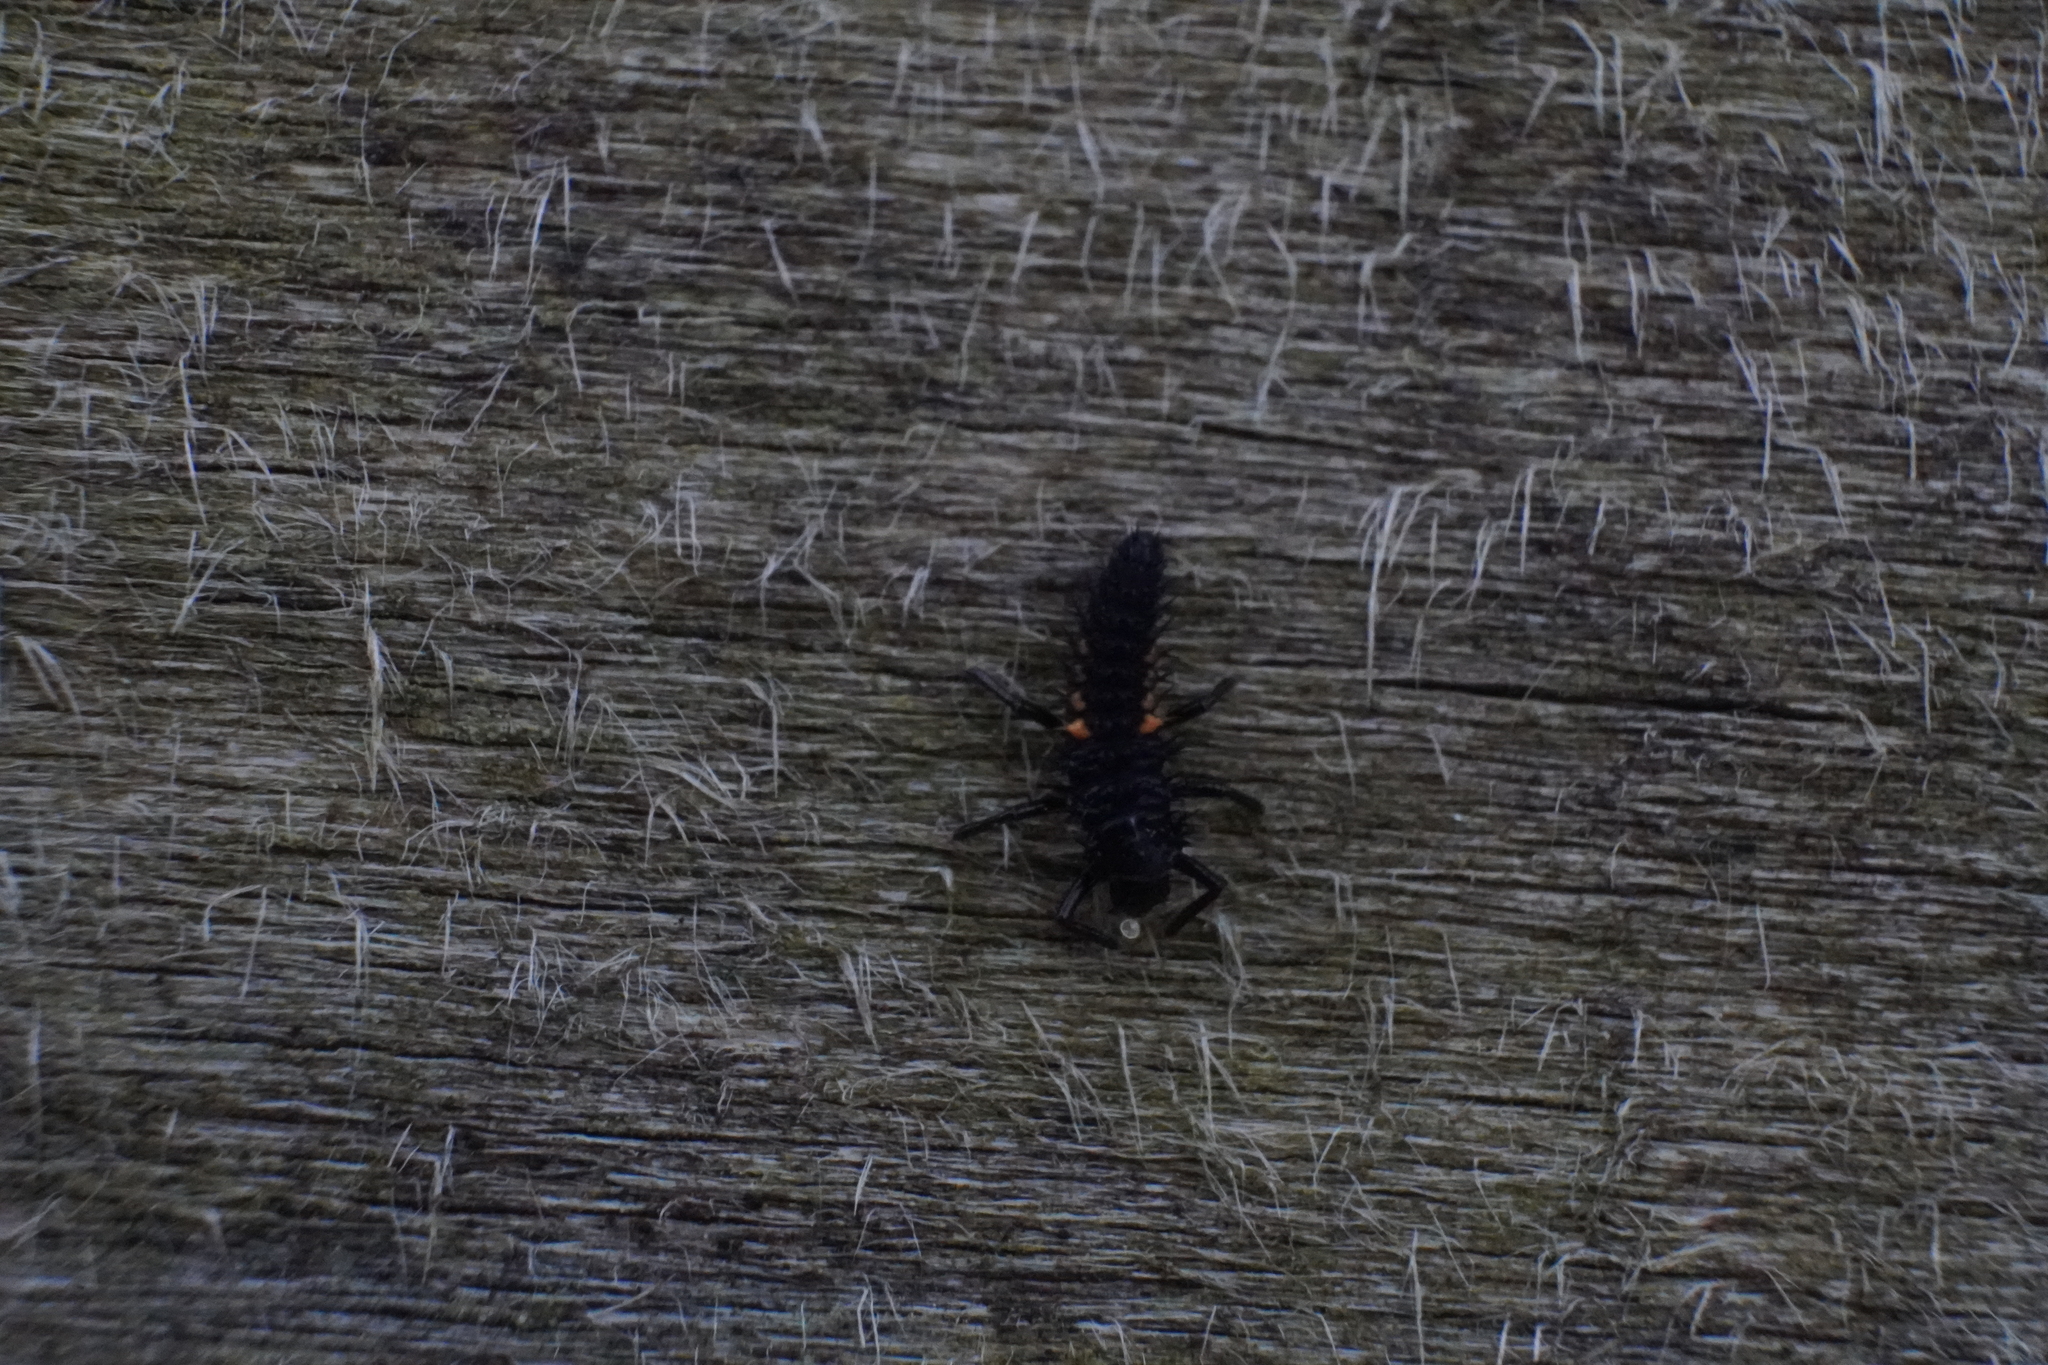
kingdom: Animalia
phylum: Arthropoda
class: Insecta
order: Coleoptera
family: Coccinellidae
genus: Harmonia
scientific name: Harmonia axyridis
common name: Harlequin ladybird
